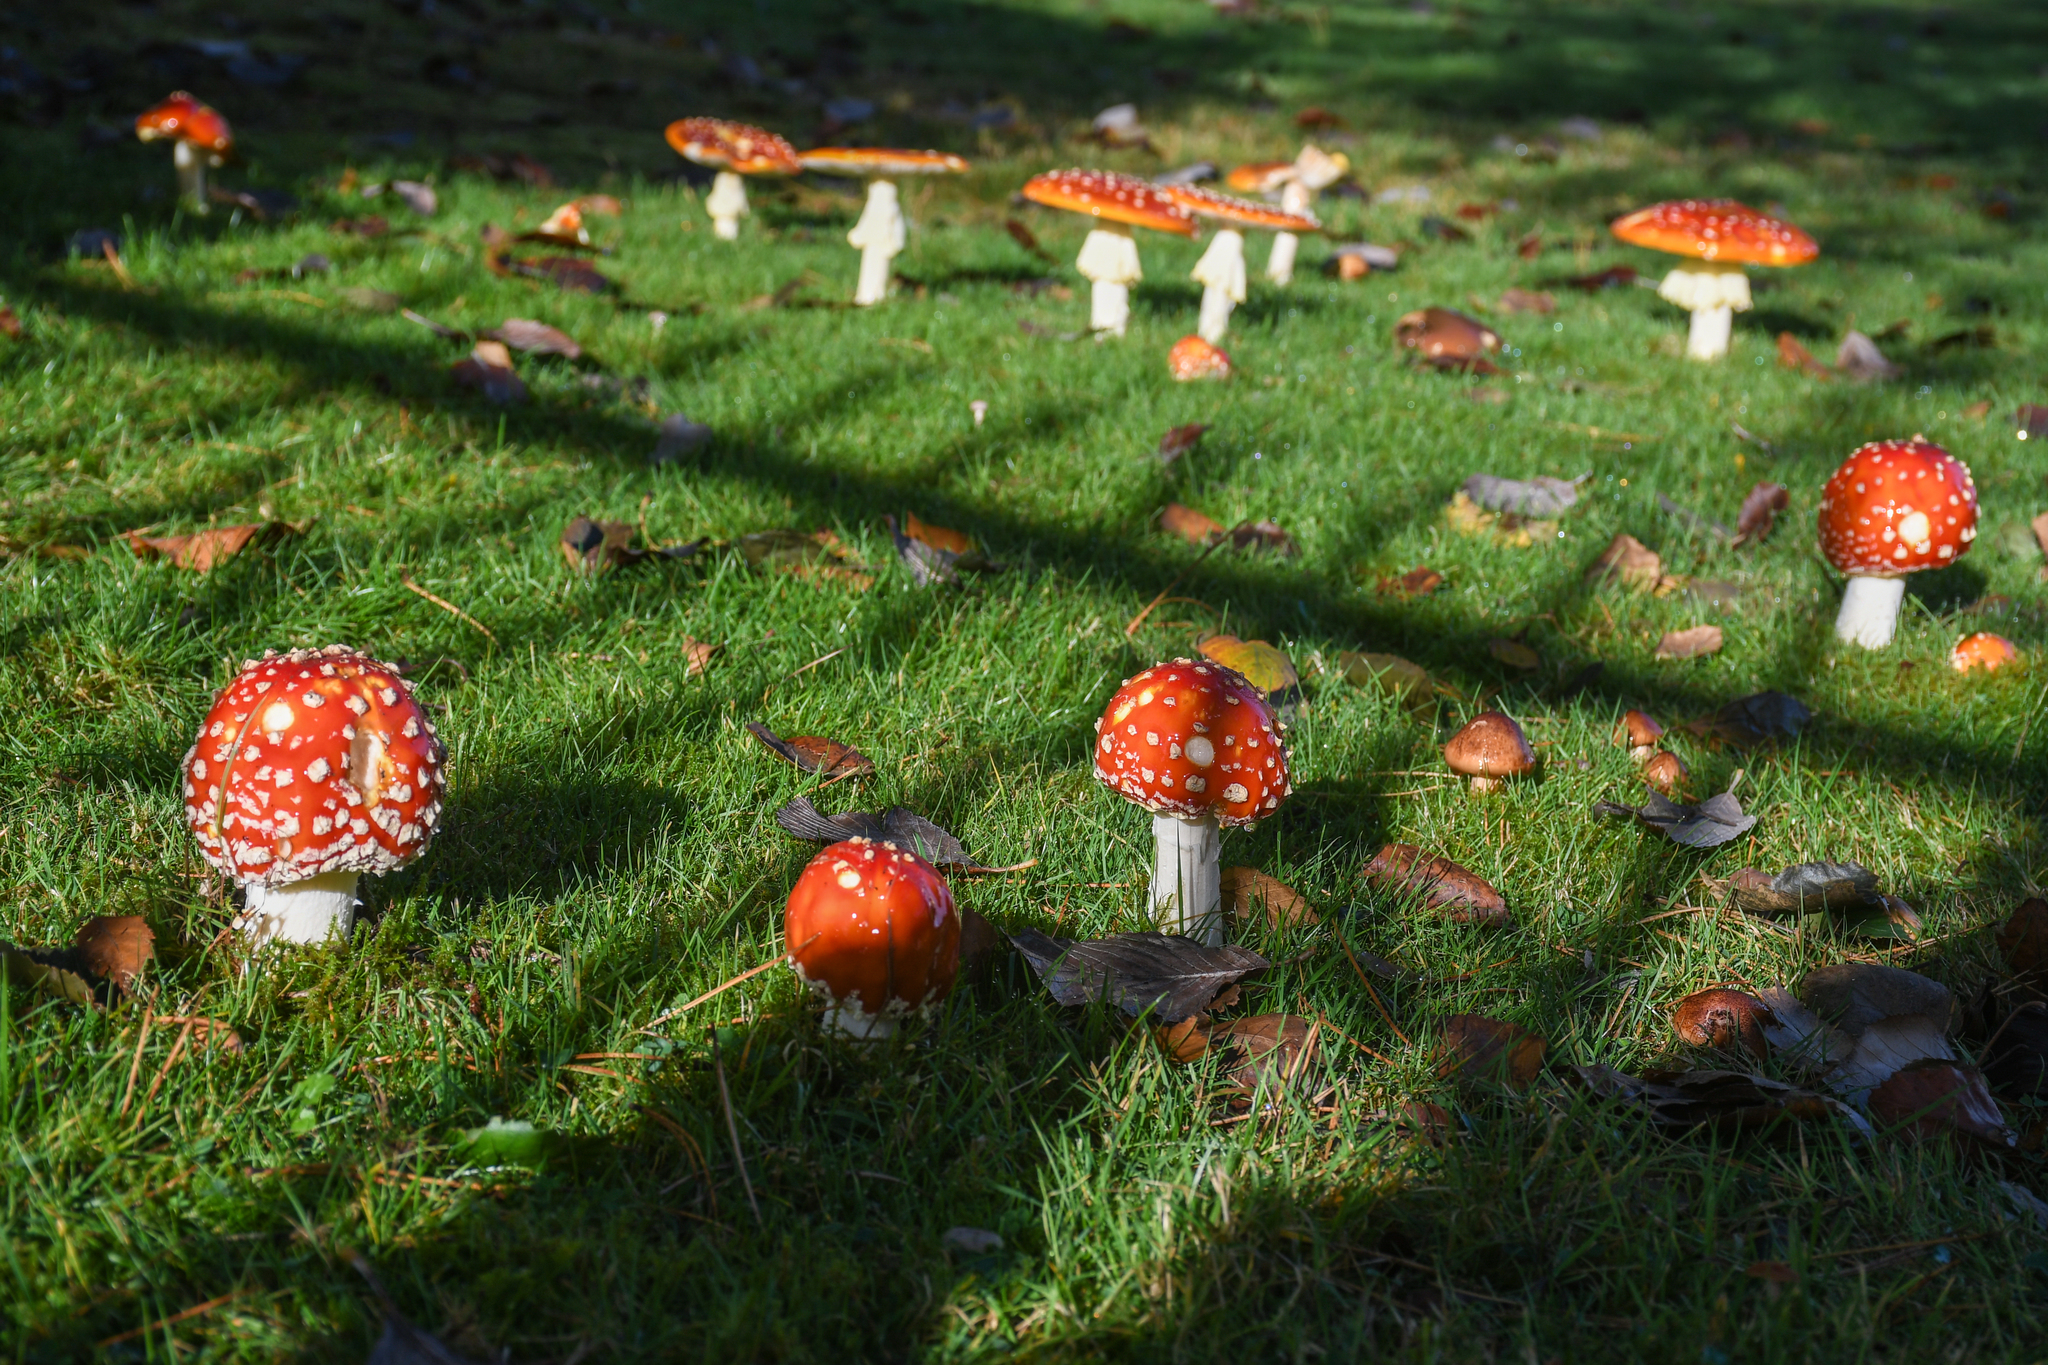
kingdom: Fungi
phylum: Basidiomycota
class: Agaricomycetes
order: Agaricales
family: Amanitaceae
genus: Amanita
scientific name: Amanita muscaria
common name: Fly agaric
